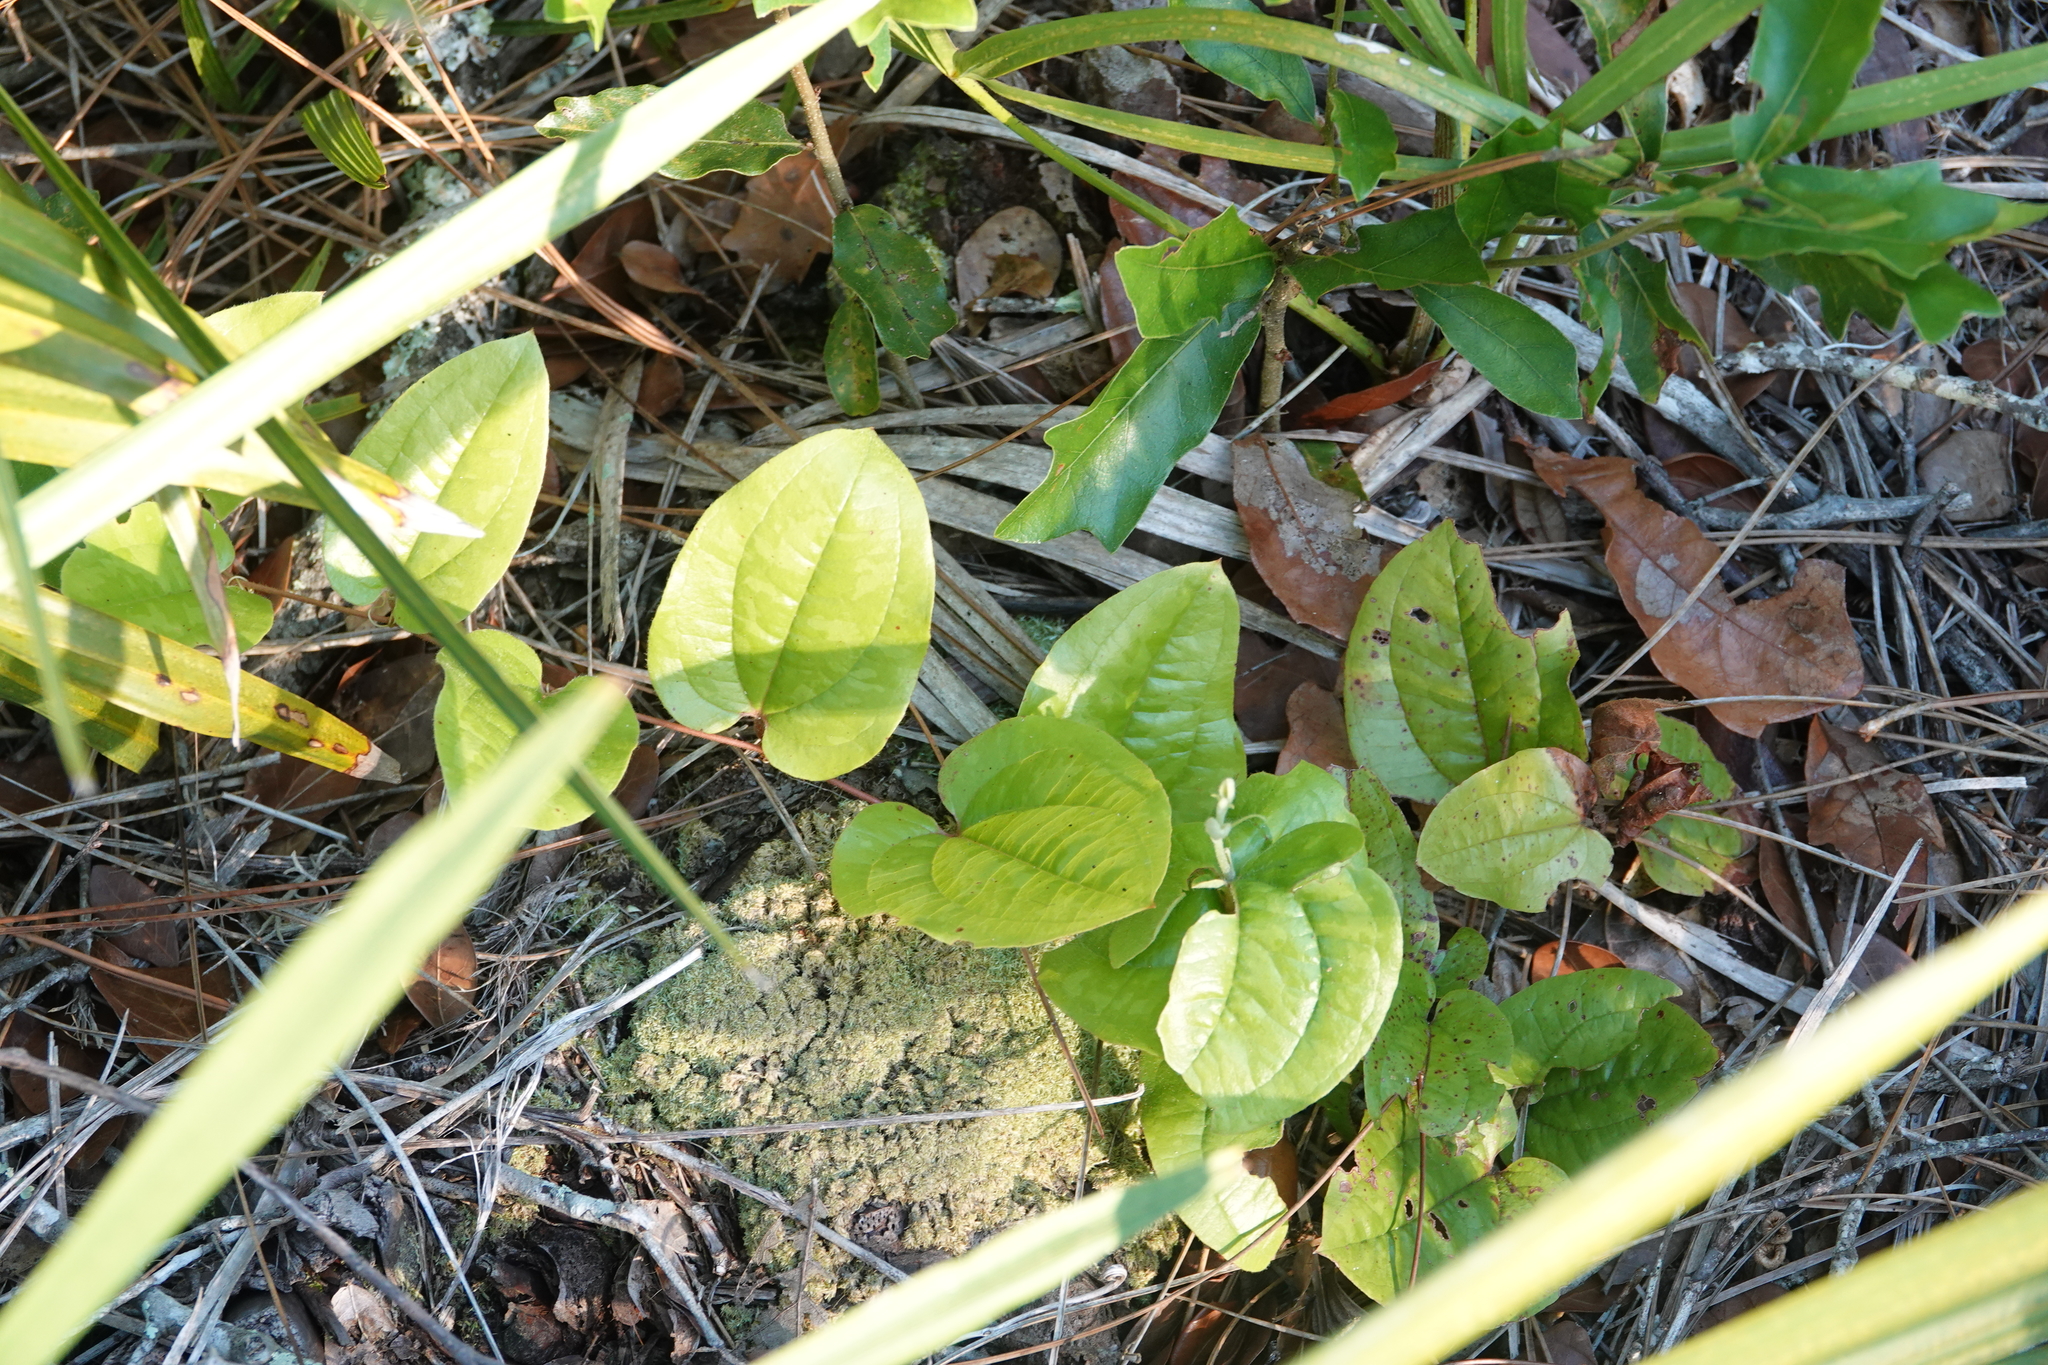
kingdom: Plantae
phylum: Tracheophyta
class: Liliopsida
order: Liliales
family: Smilacaceae
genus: Smilax
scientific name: Smilax pumila
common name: Sarsaparilla-vine
